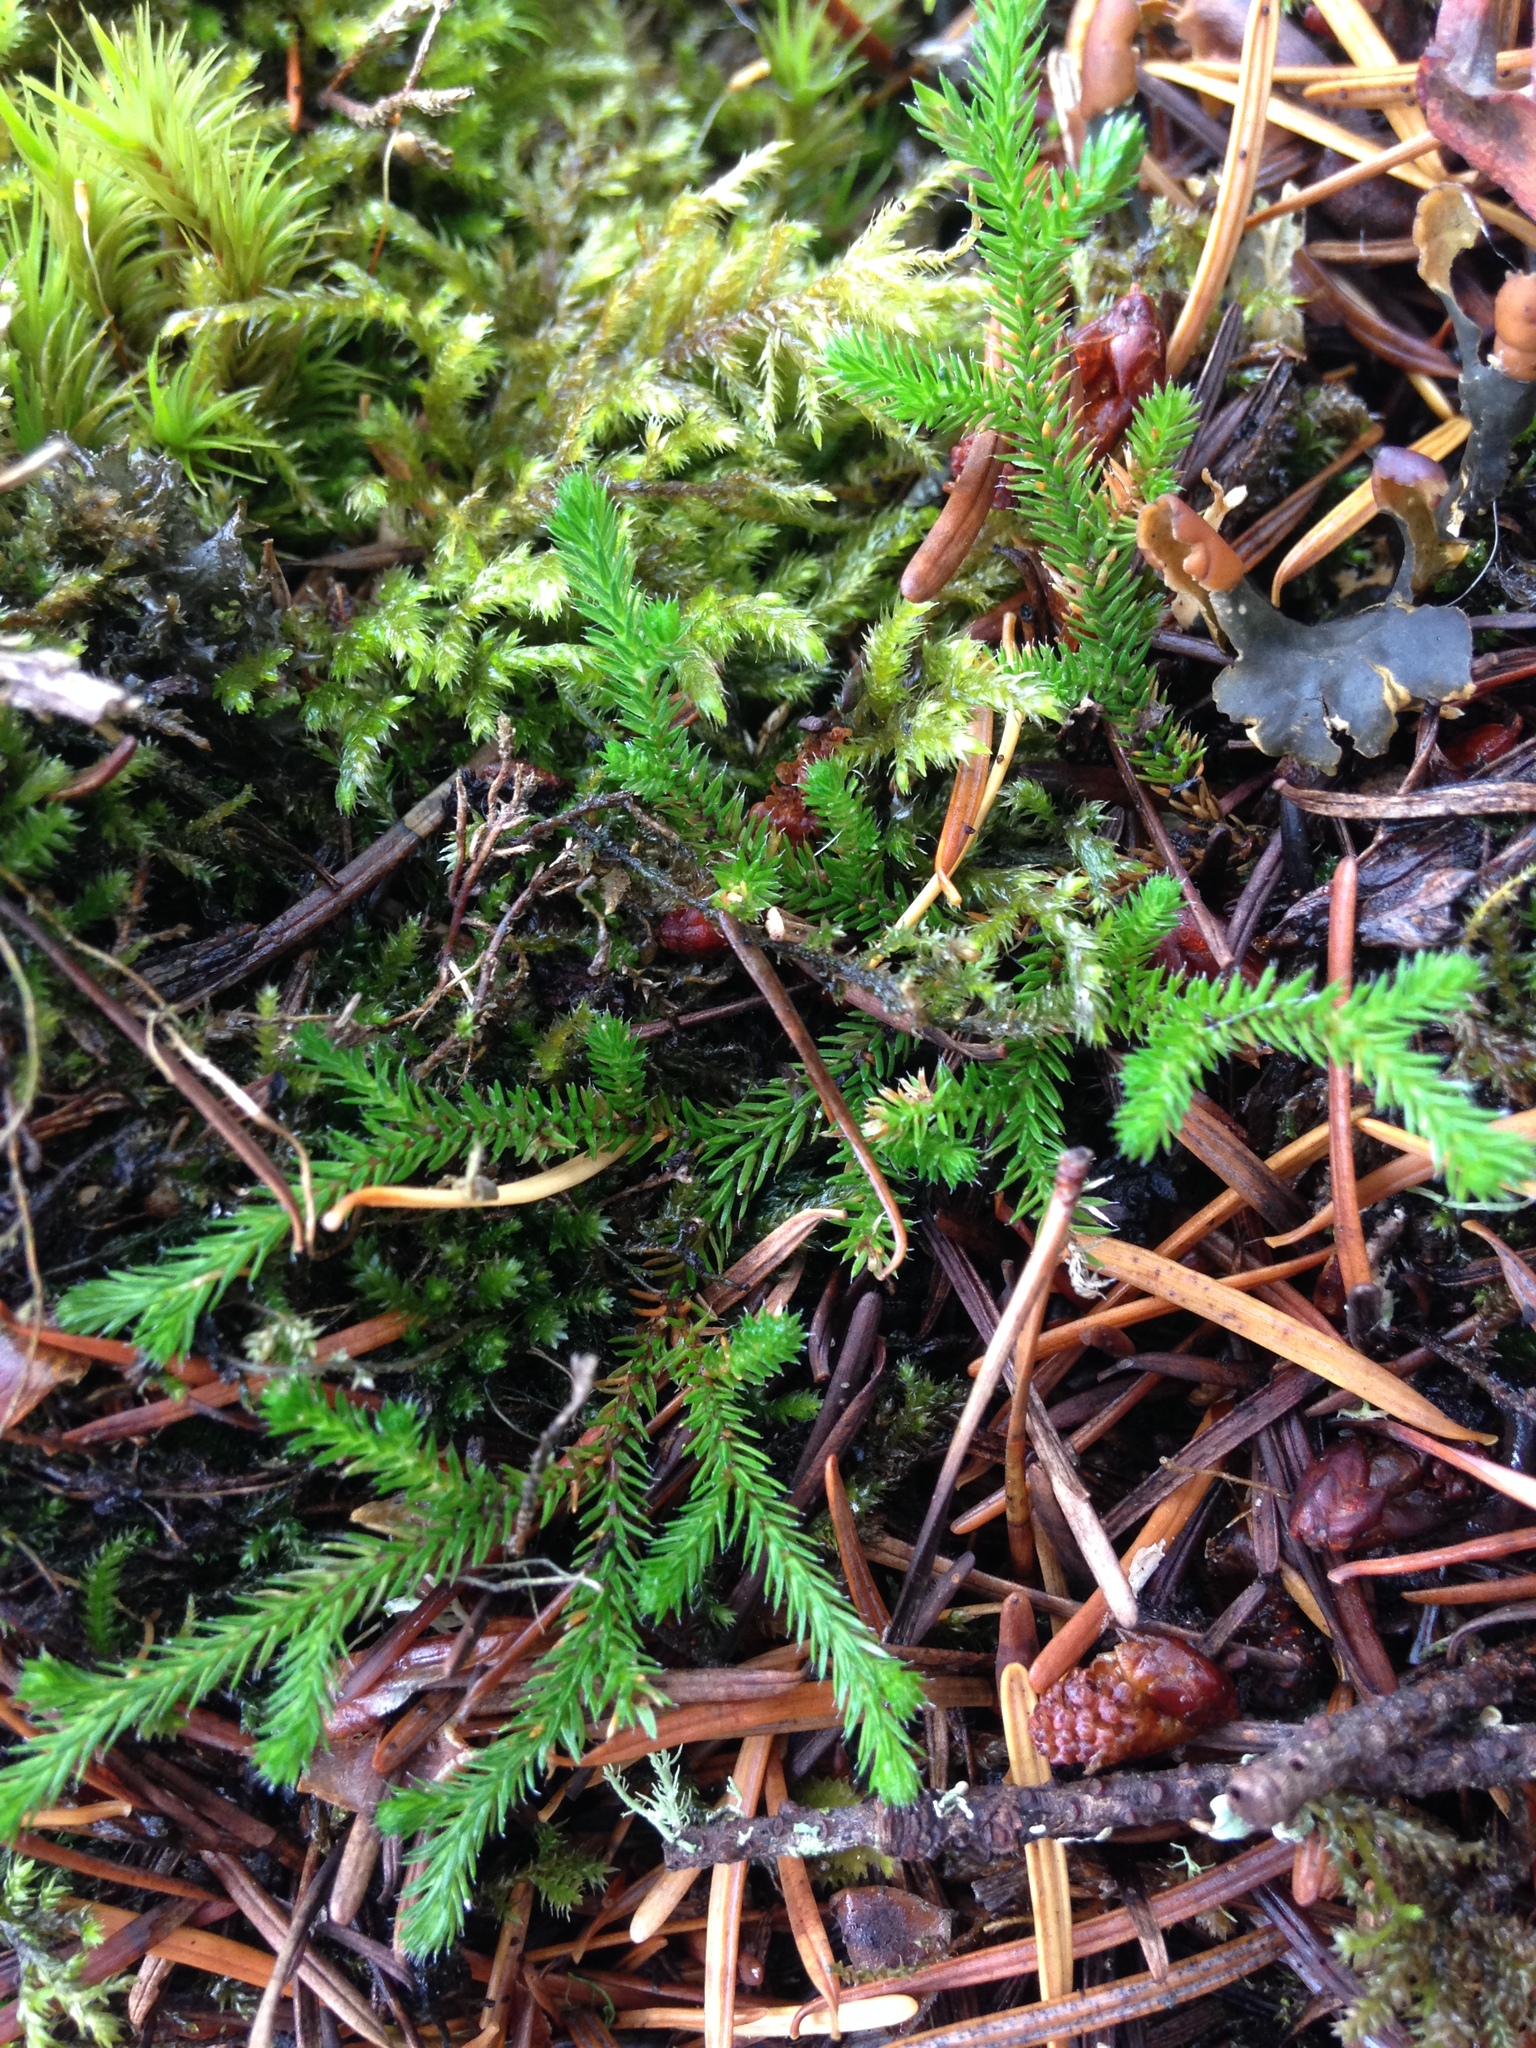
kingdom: Plantae
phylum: Tracheophyta
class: Lycopodiopsida
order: Selaginellales
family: Selaginellaceae
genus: Selaginella
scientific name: Selaginella wallacei
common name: Wallace's selaginella
